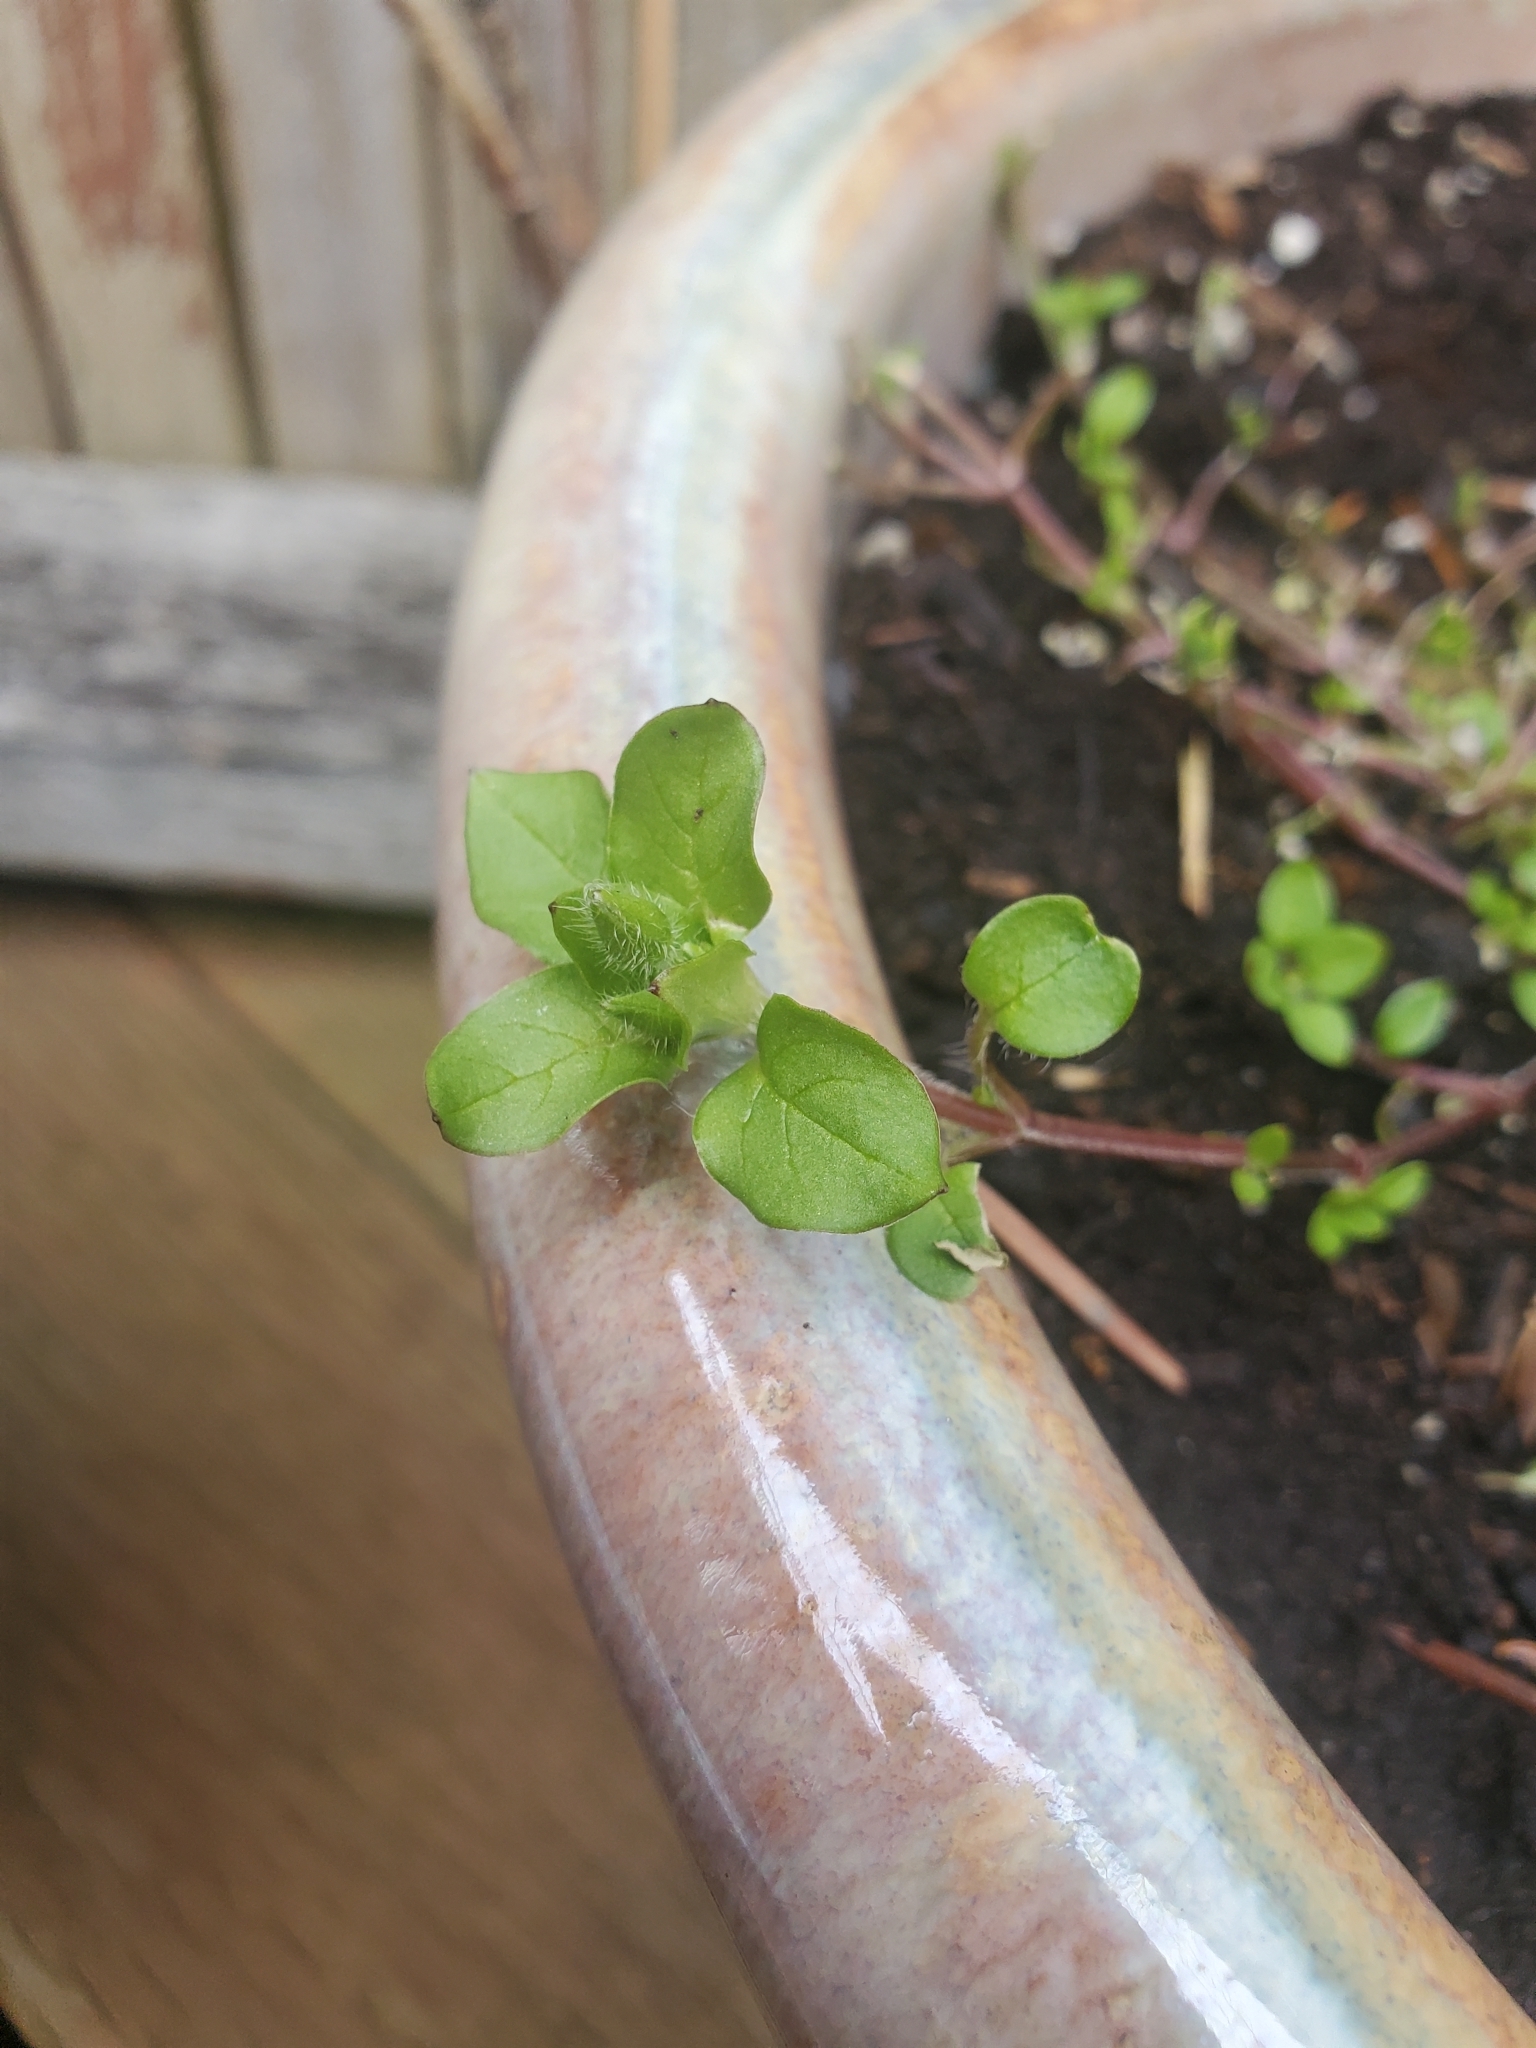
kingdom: Plantae
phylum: Tracheophyta
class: Magnoliopsida
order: Caryophyllales
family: Caryophyllaceae
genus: Stellaria
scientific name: Stellaria media
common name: Common chickweed
